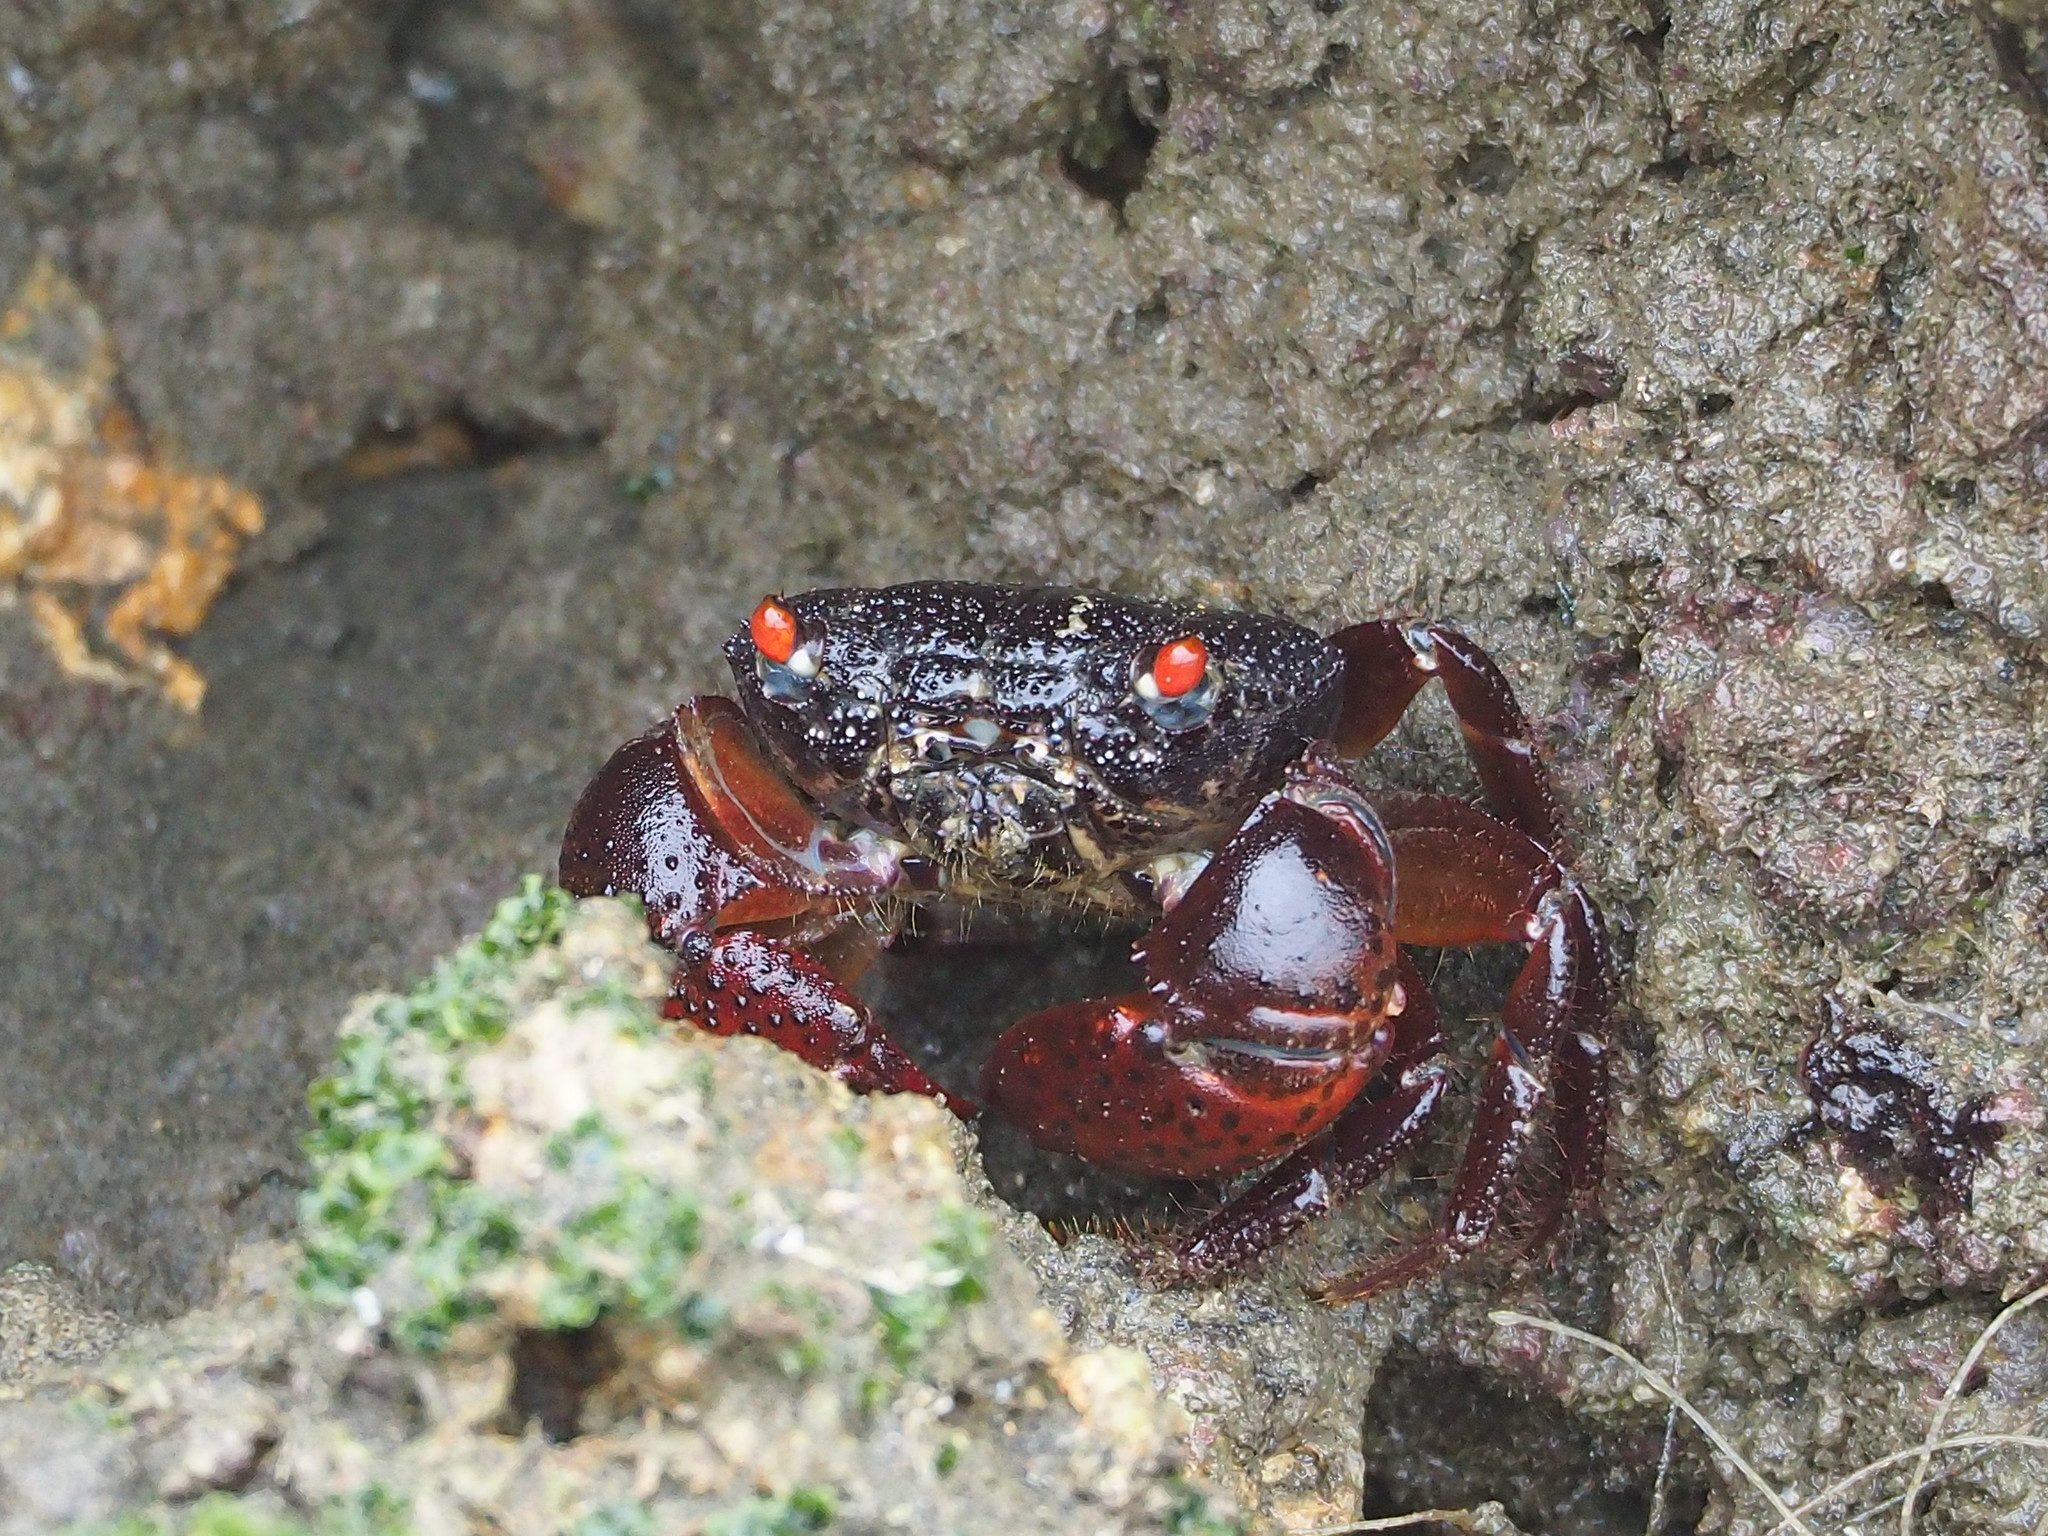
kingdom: Animalia
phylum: Arthropoda
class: Malacostraca
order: Decapoda
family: Eriphiidae
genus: Eriphia
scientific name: Eriphia ferox
